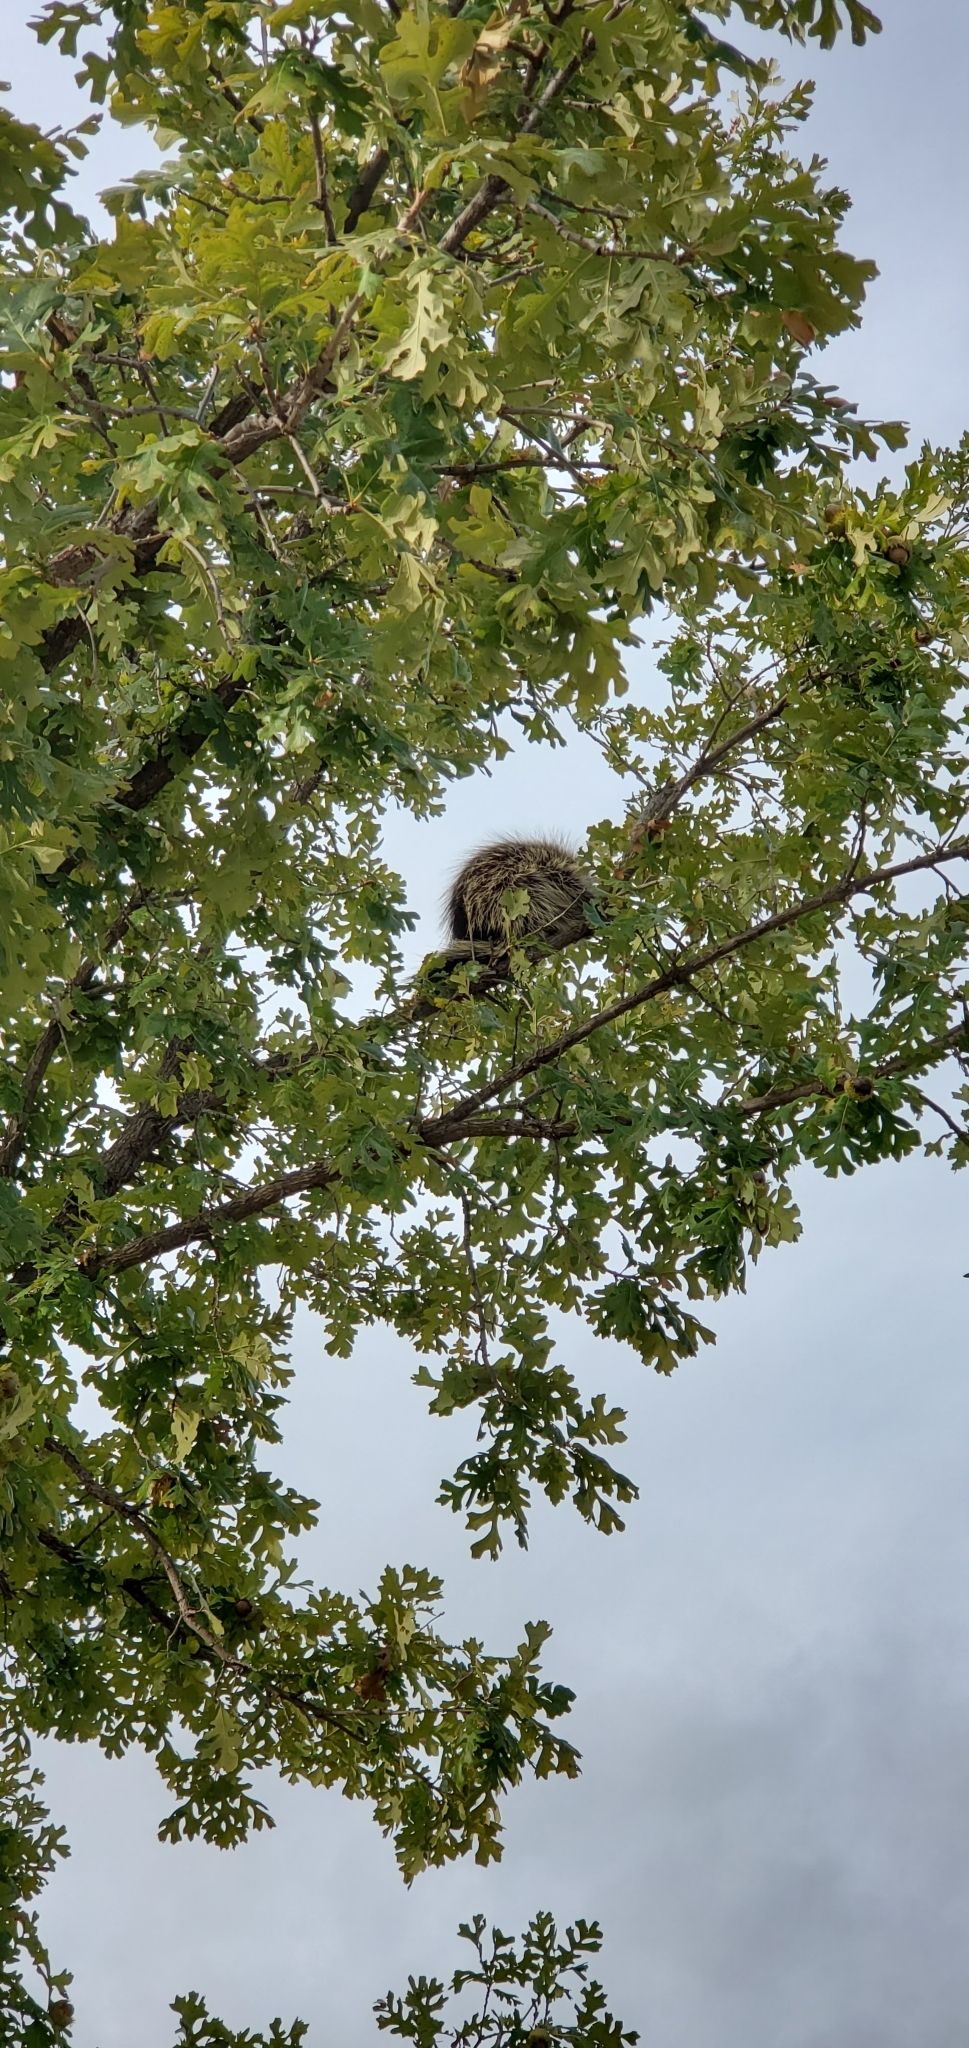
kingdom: Animalia
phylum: Chordata
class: Mammalia
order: Rodentia
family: Erethizontidae
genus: Erethizon
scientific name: Erethizon dorsatus
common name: North american porcupine
